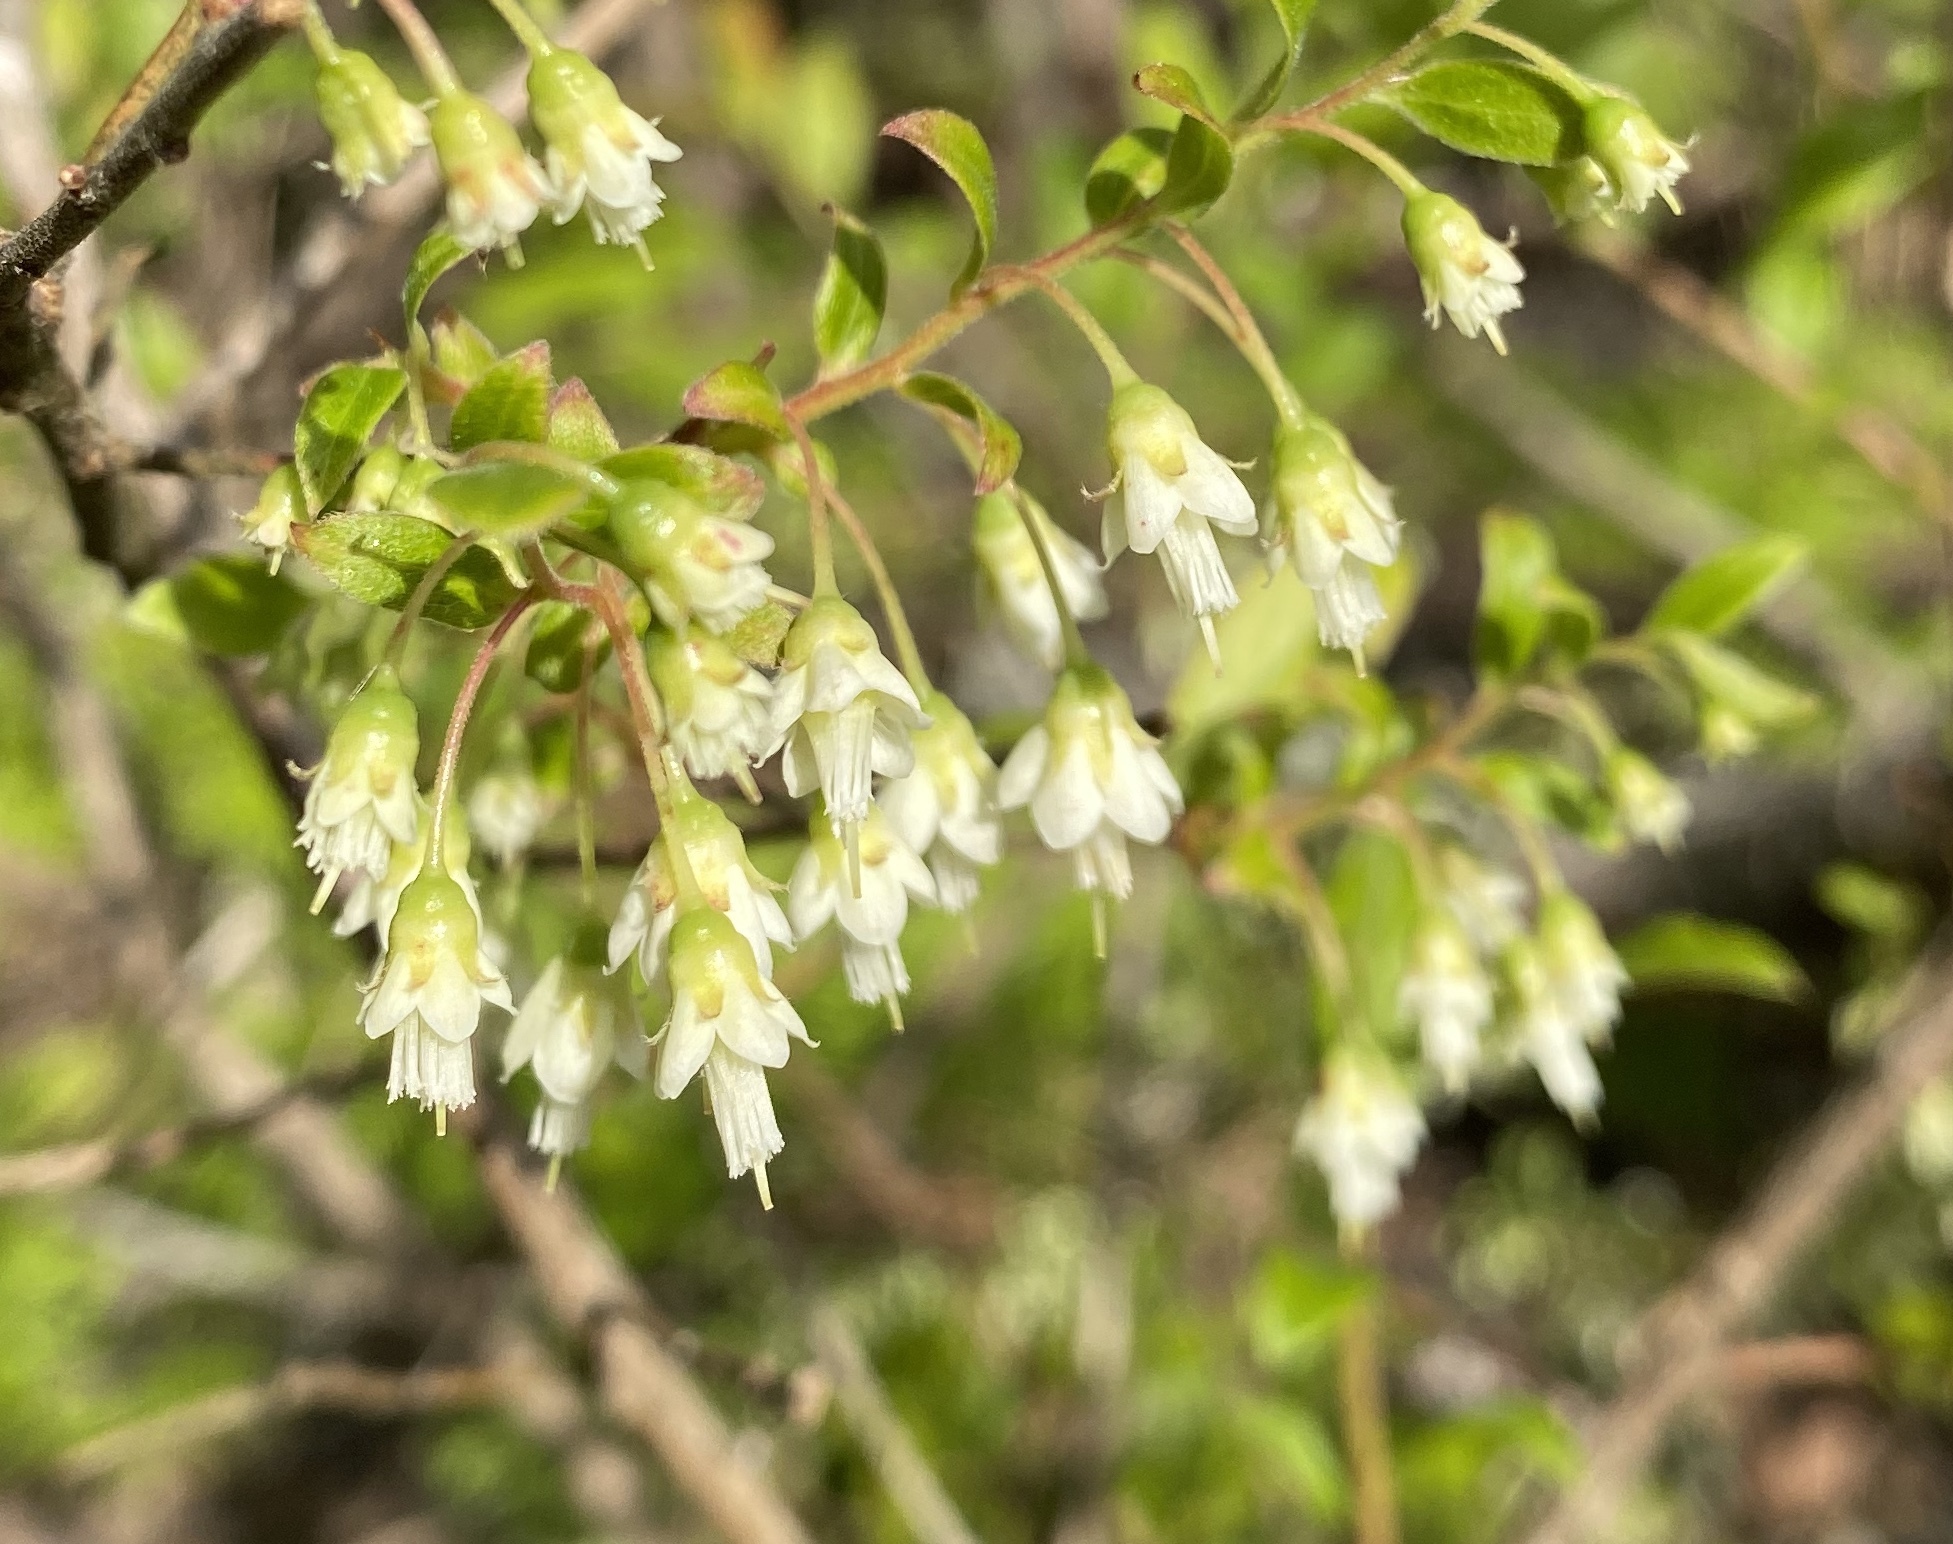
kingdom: Plantae
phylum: Tracheophyta
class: Magnoliopsida
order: Ericales
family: Ericaceae
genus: Vaccinium
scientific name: Vaccinium stamineum
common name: Deerberry
